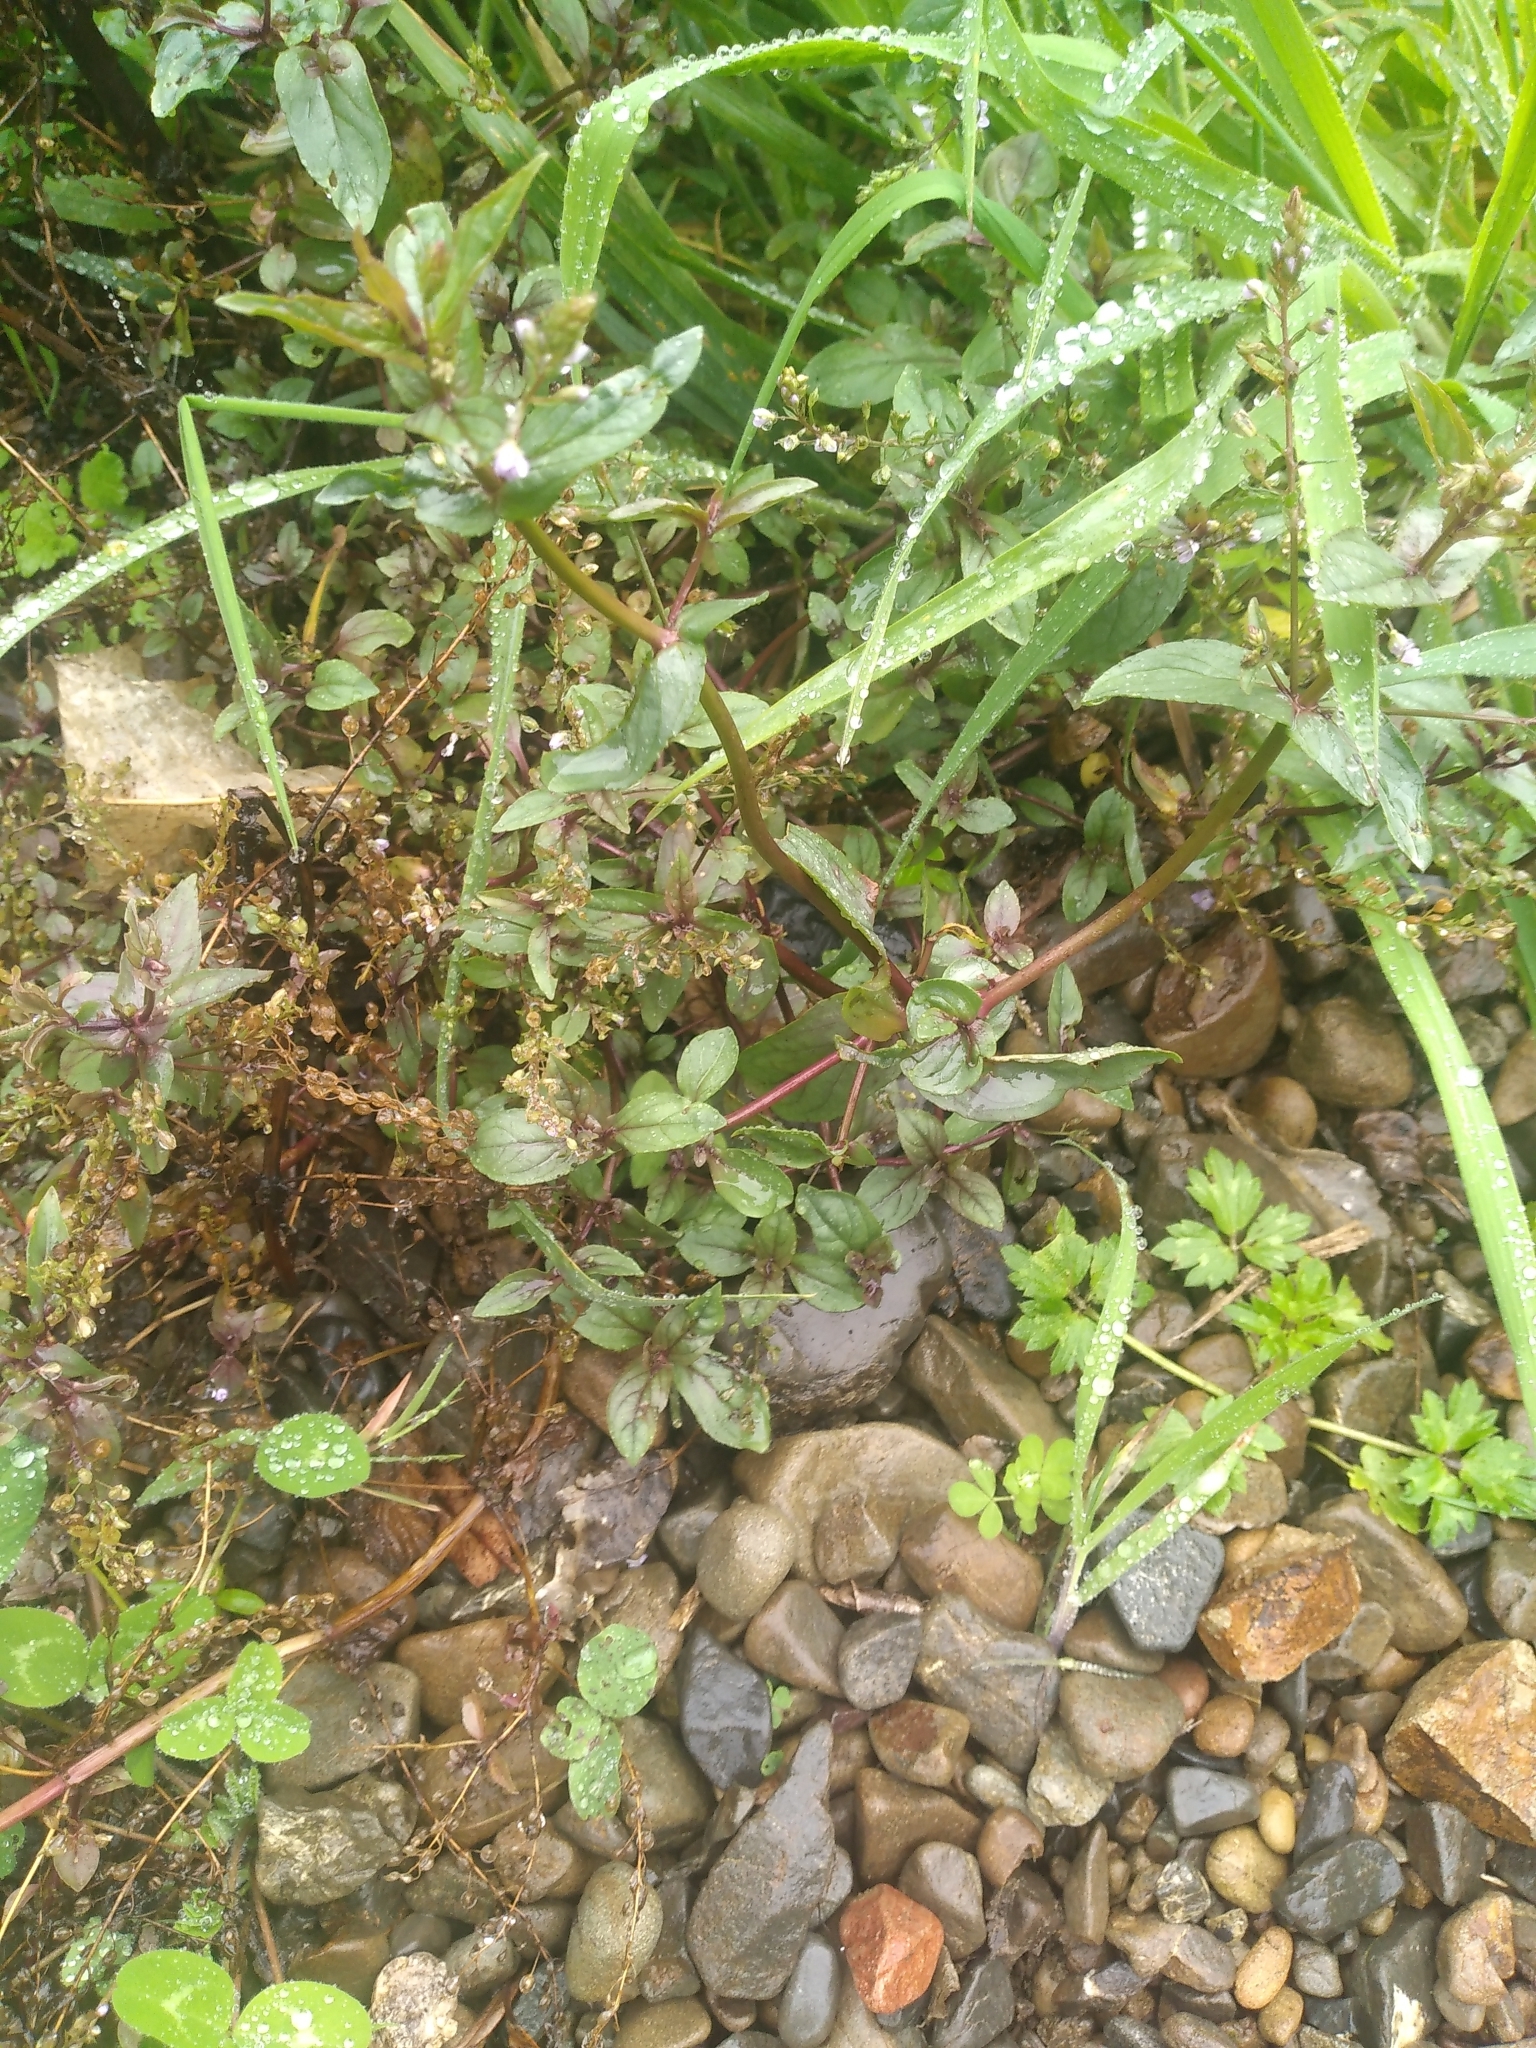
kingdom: Plantae
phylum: Tracheophyta
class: Magnoliopsida
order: Lamiales
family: Plantaginaceae
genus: Veronica
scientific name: Veronica anagallis-aquatica
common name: Water speedwell
